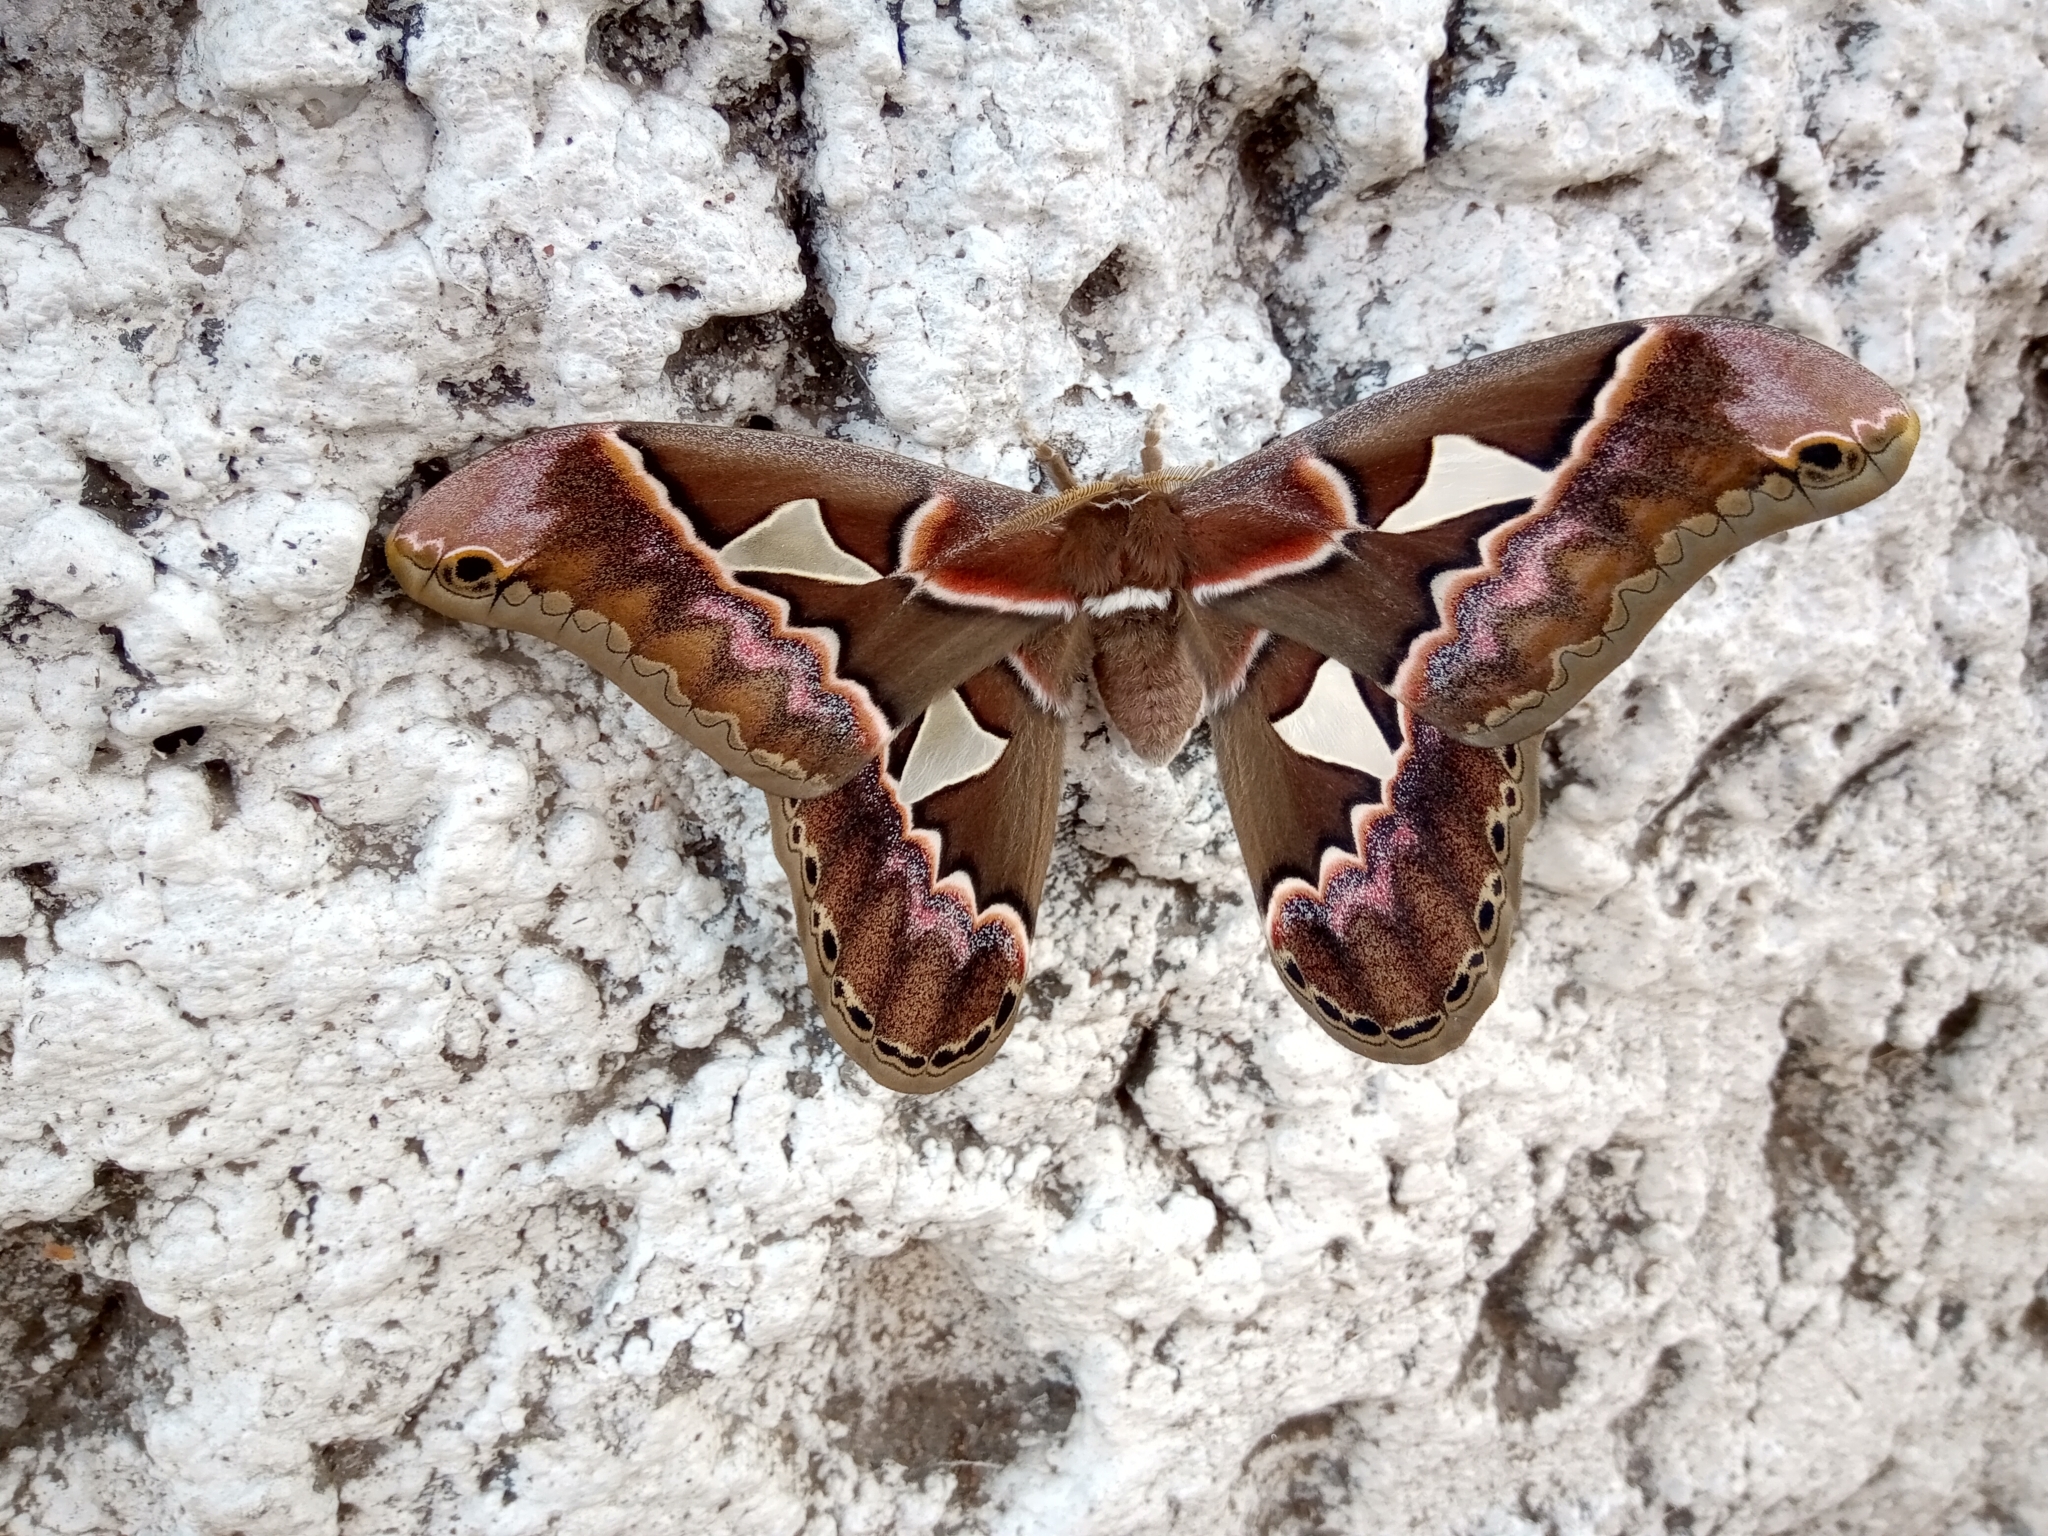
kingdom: Animalia
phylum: Arthropoda
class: Insecta
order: Lepidoptera
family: Saturniidae
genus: Rothschildia
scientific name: Rothschildia orizaba
